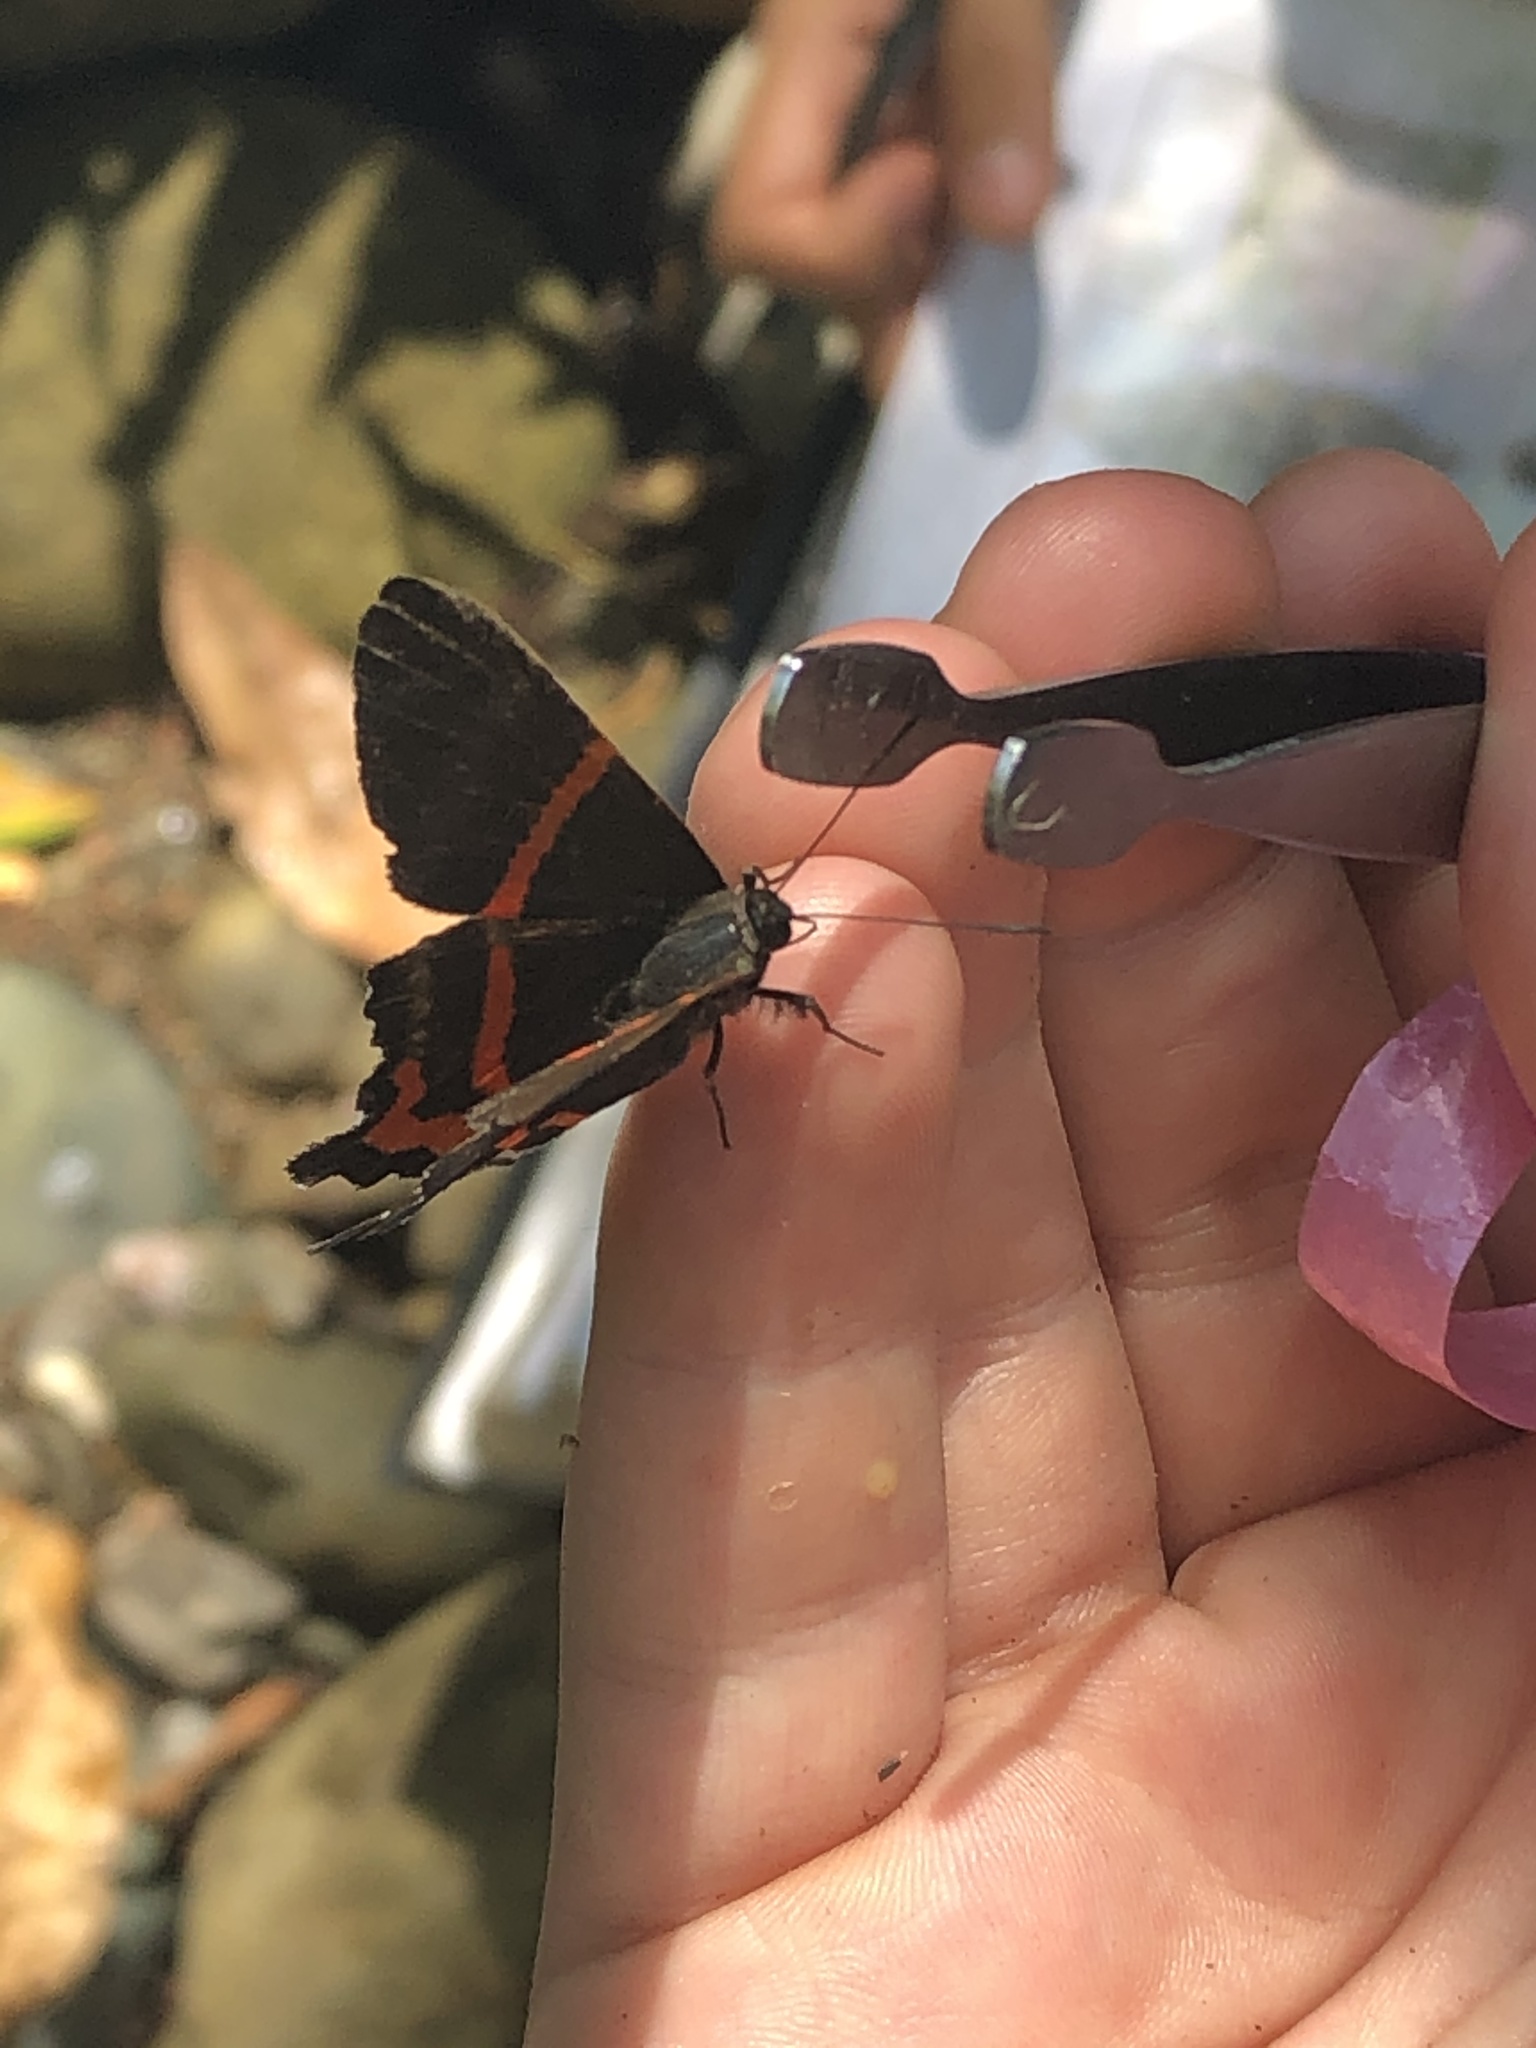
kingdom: Animalia
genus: Ancyluris
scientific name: Ancyluris aulestes
